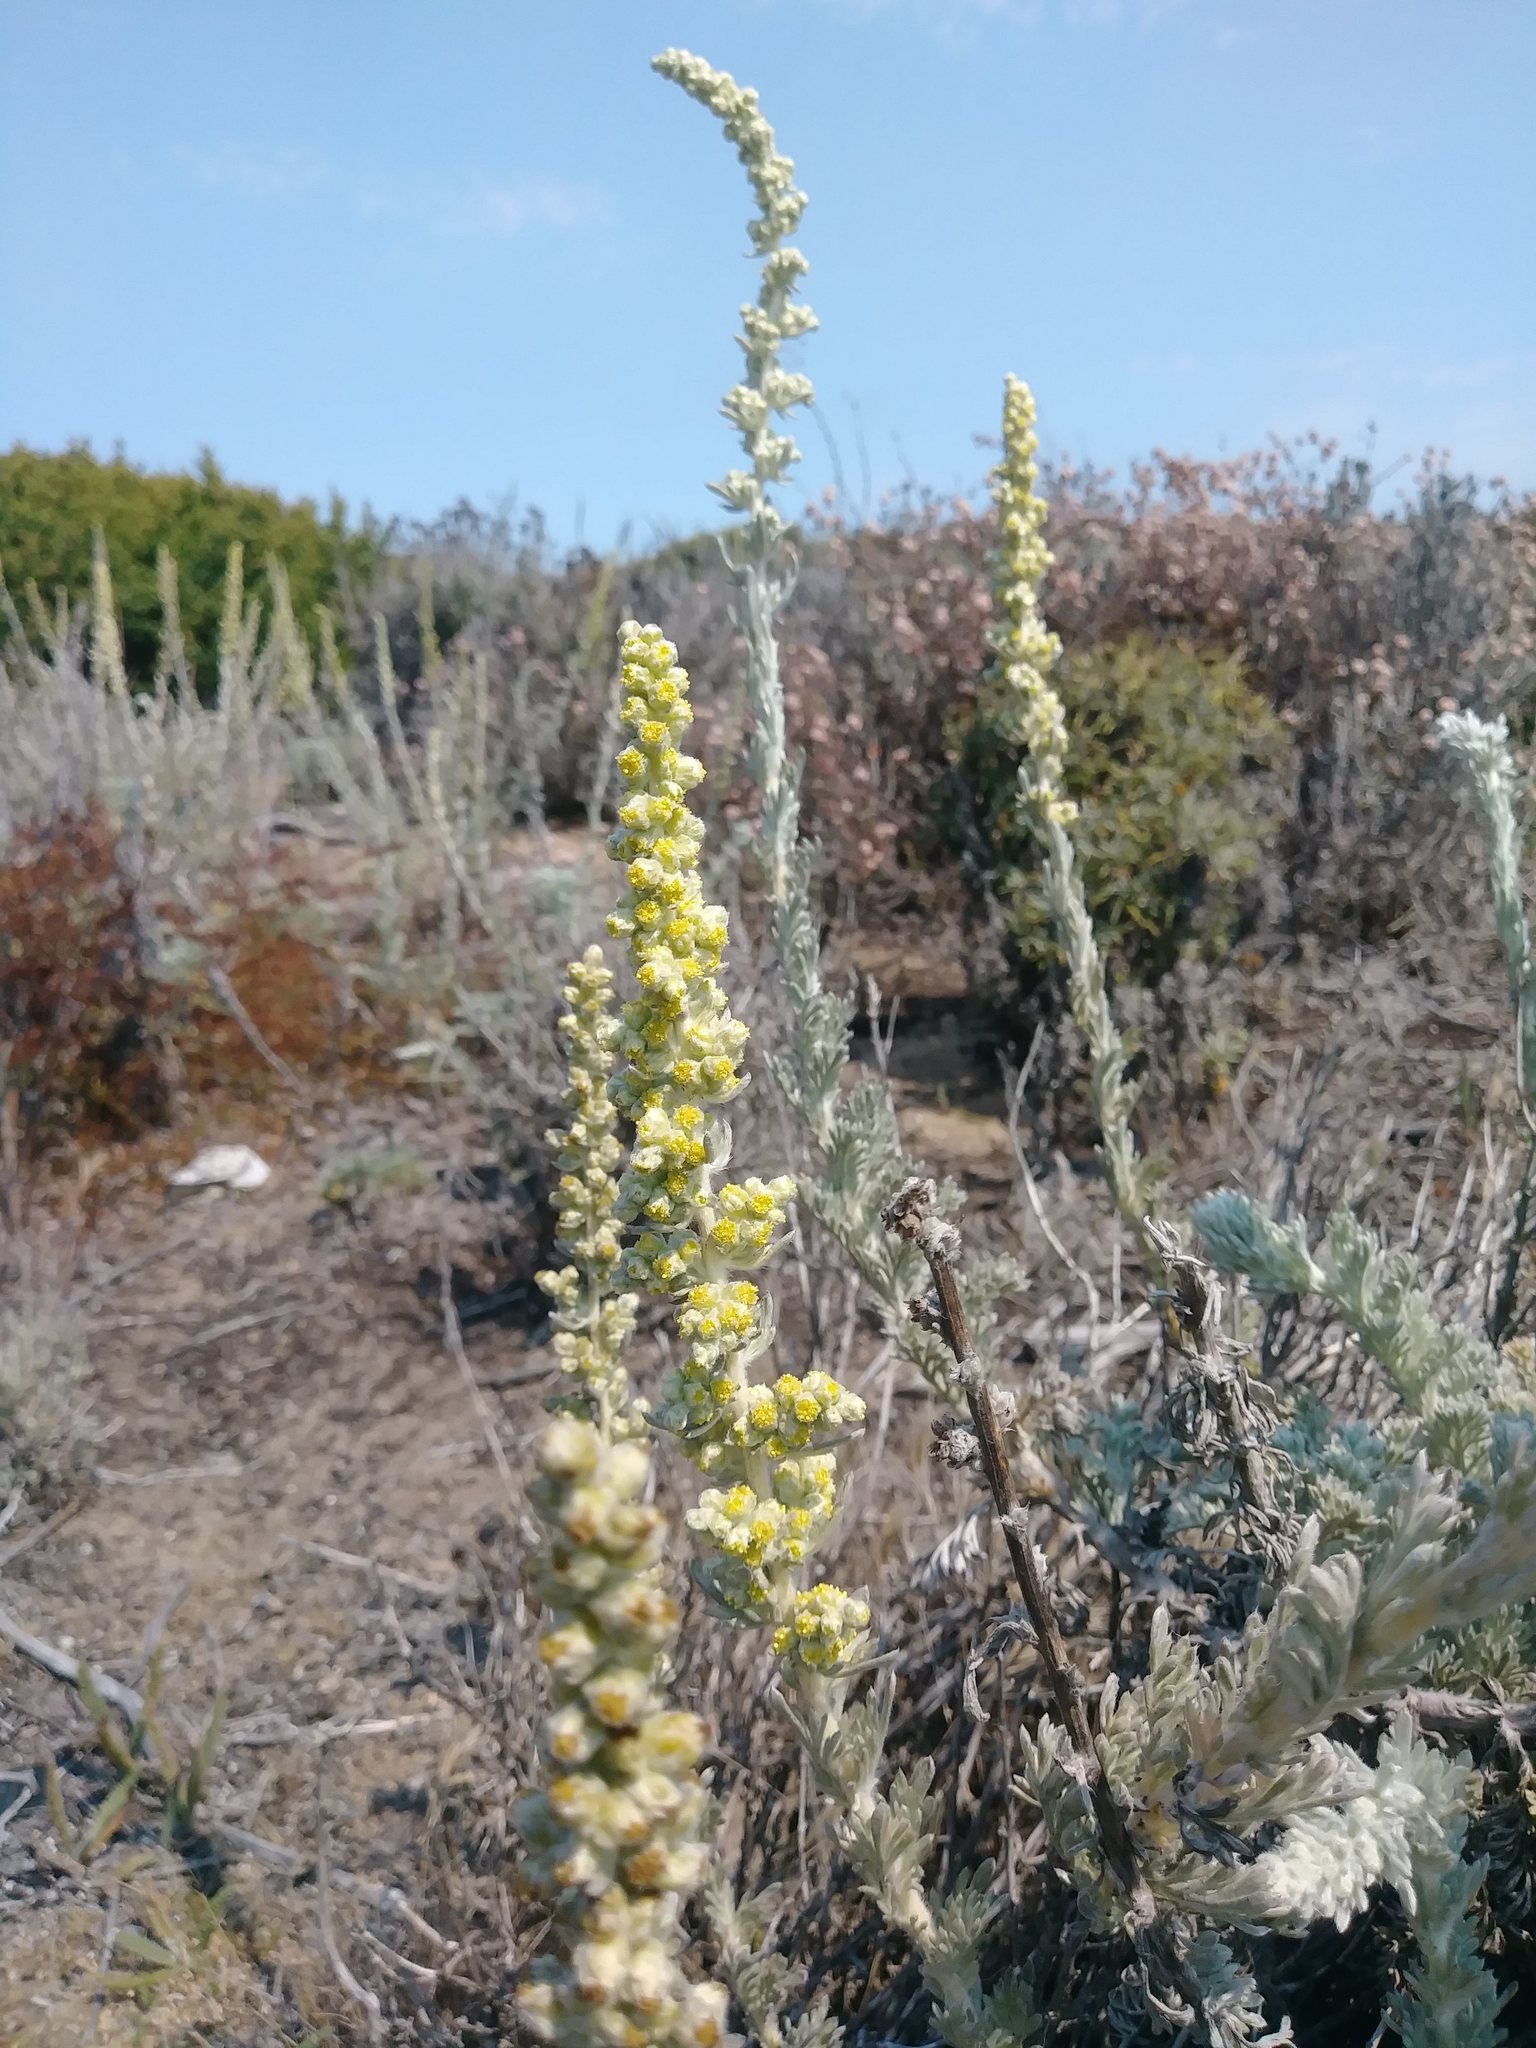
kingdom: Plantae
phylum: Tracheophyta
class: Magnoliopsida
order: Asterales
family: Asteraceae
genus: Artemisia
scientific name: Artemisia pycnocephala
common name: Coastal sagewort
